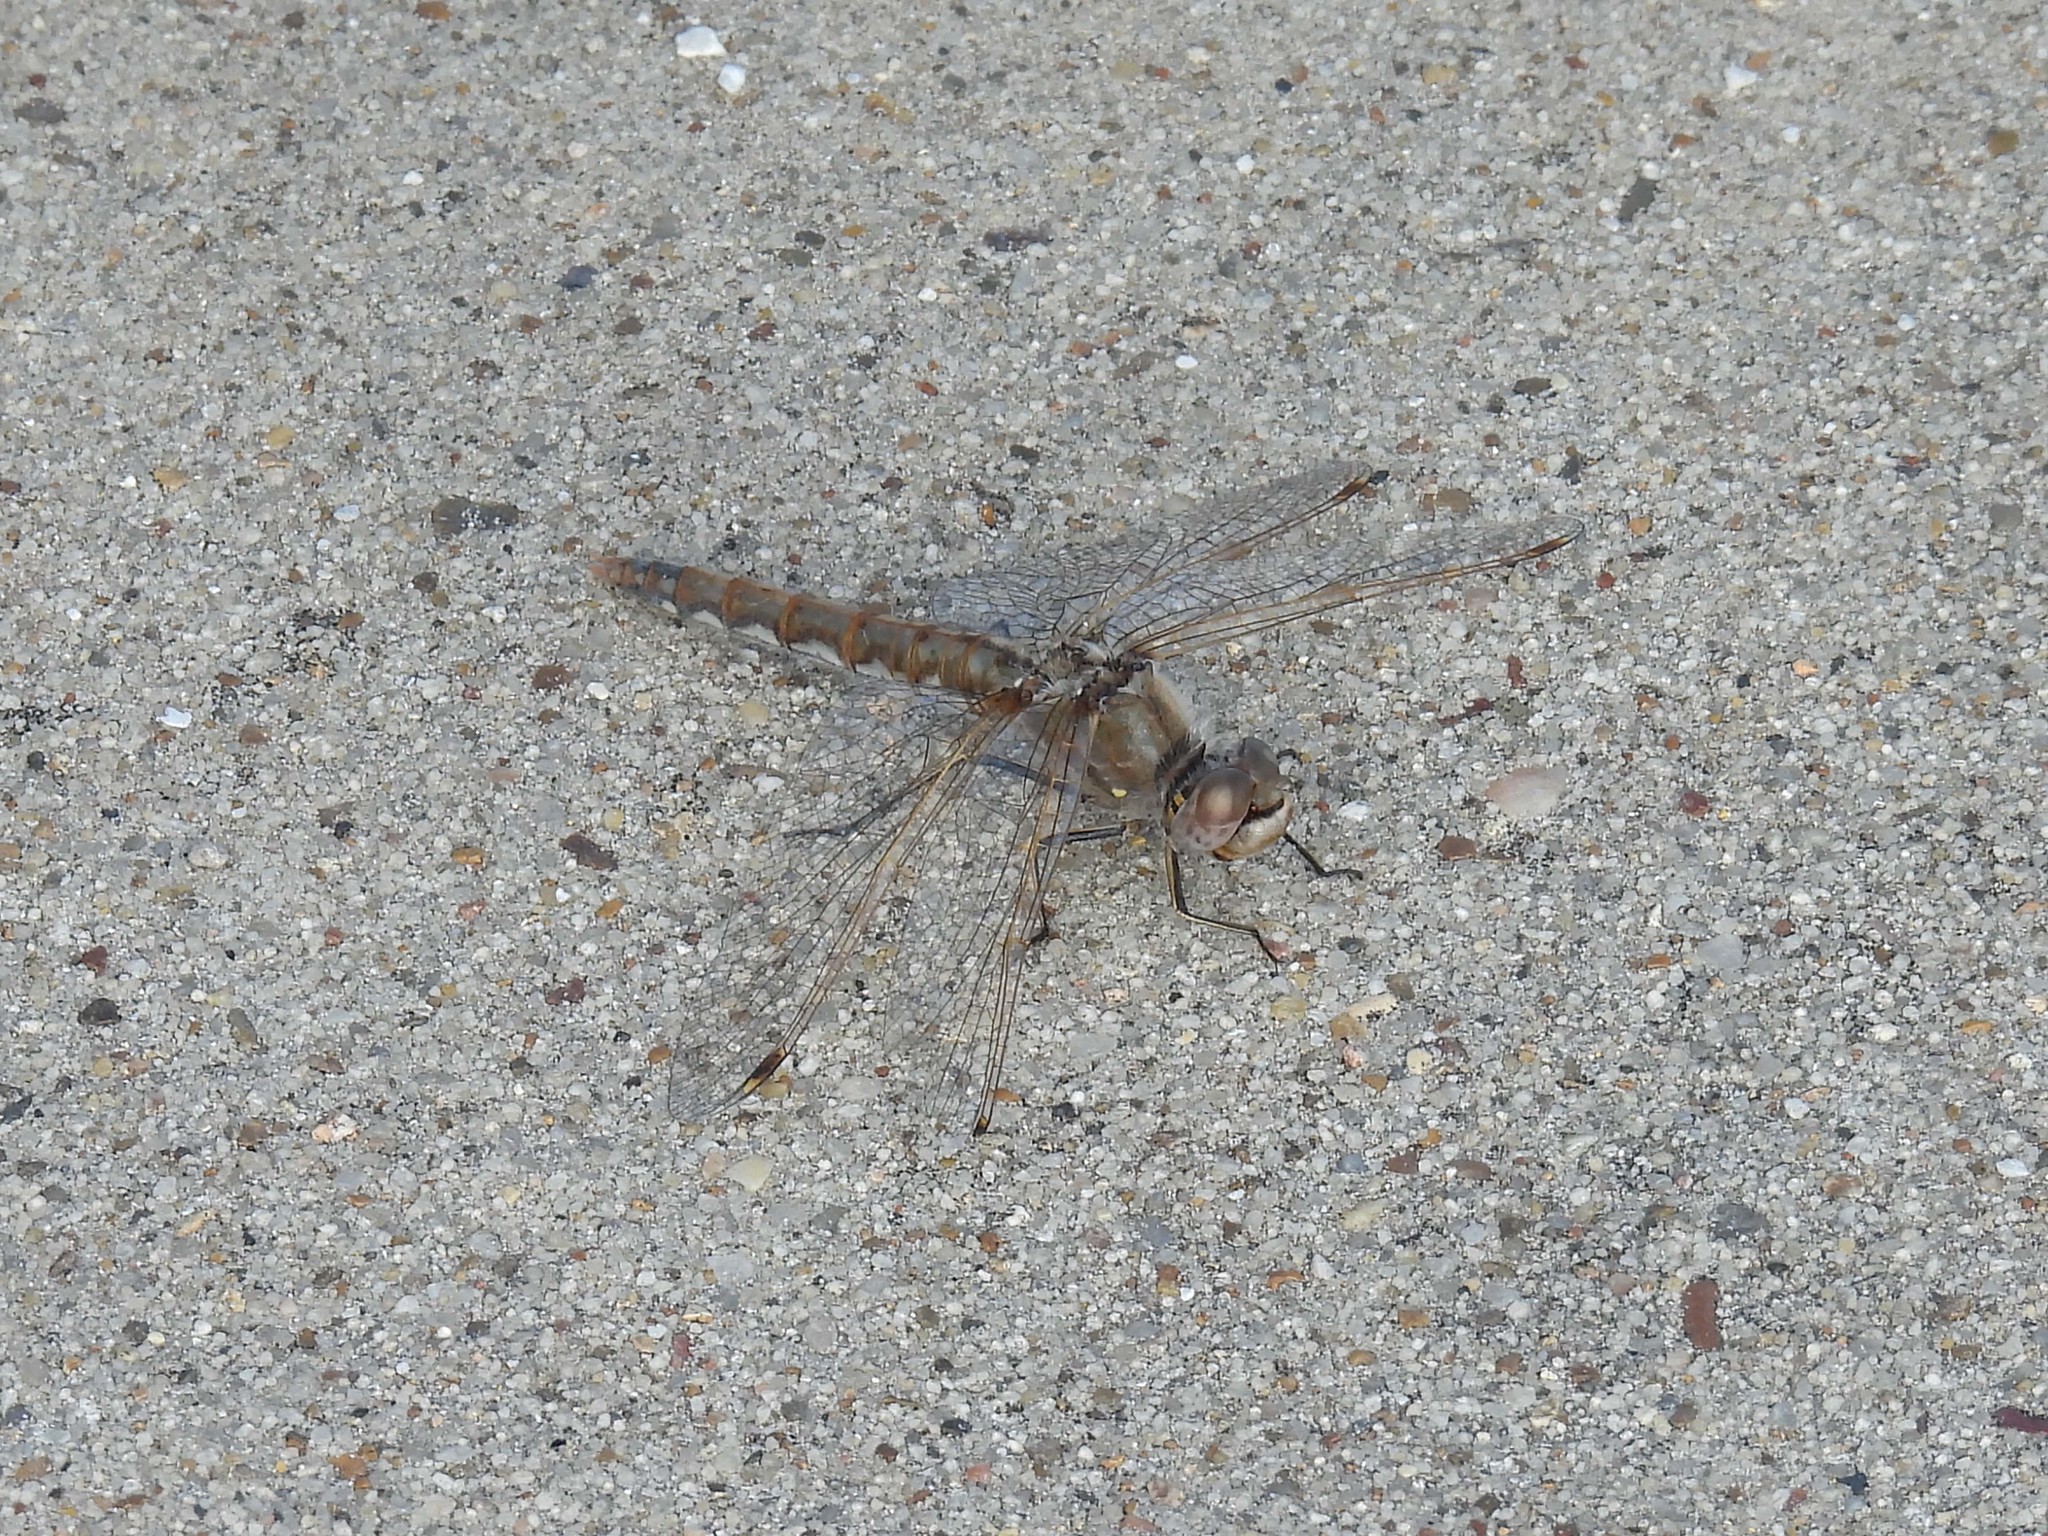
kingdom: Animalia
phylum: Arthropoda
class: Insecta
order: Odonata
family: Libellulidae
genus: Sympetrum
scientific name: Sympetrum corruptum
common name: Variegated meadowhawk
